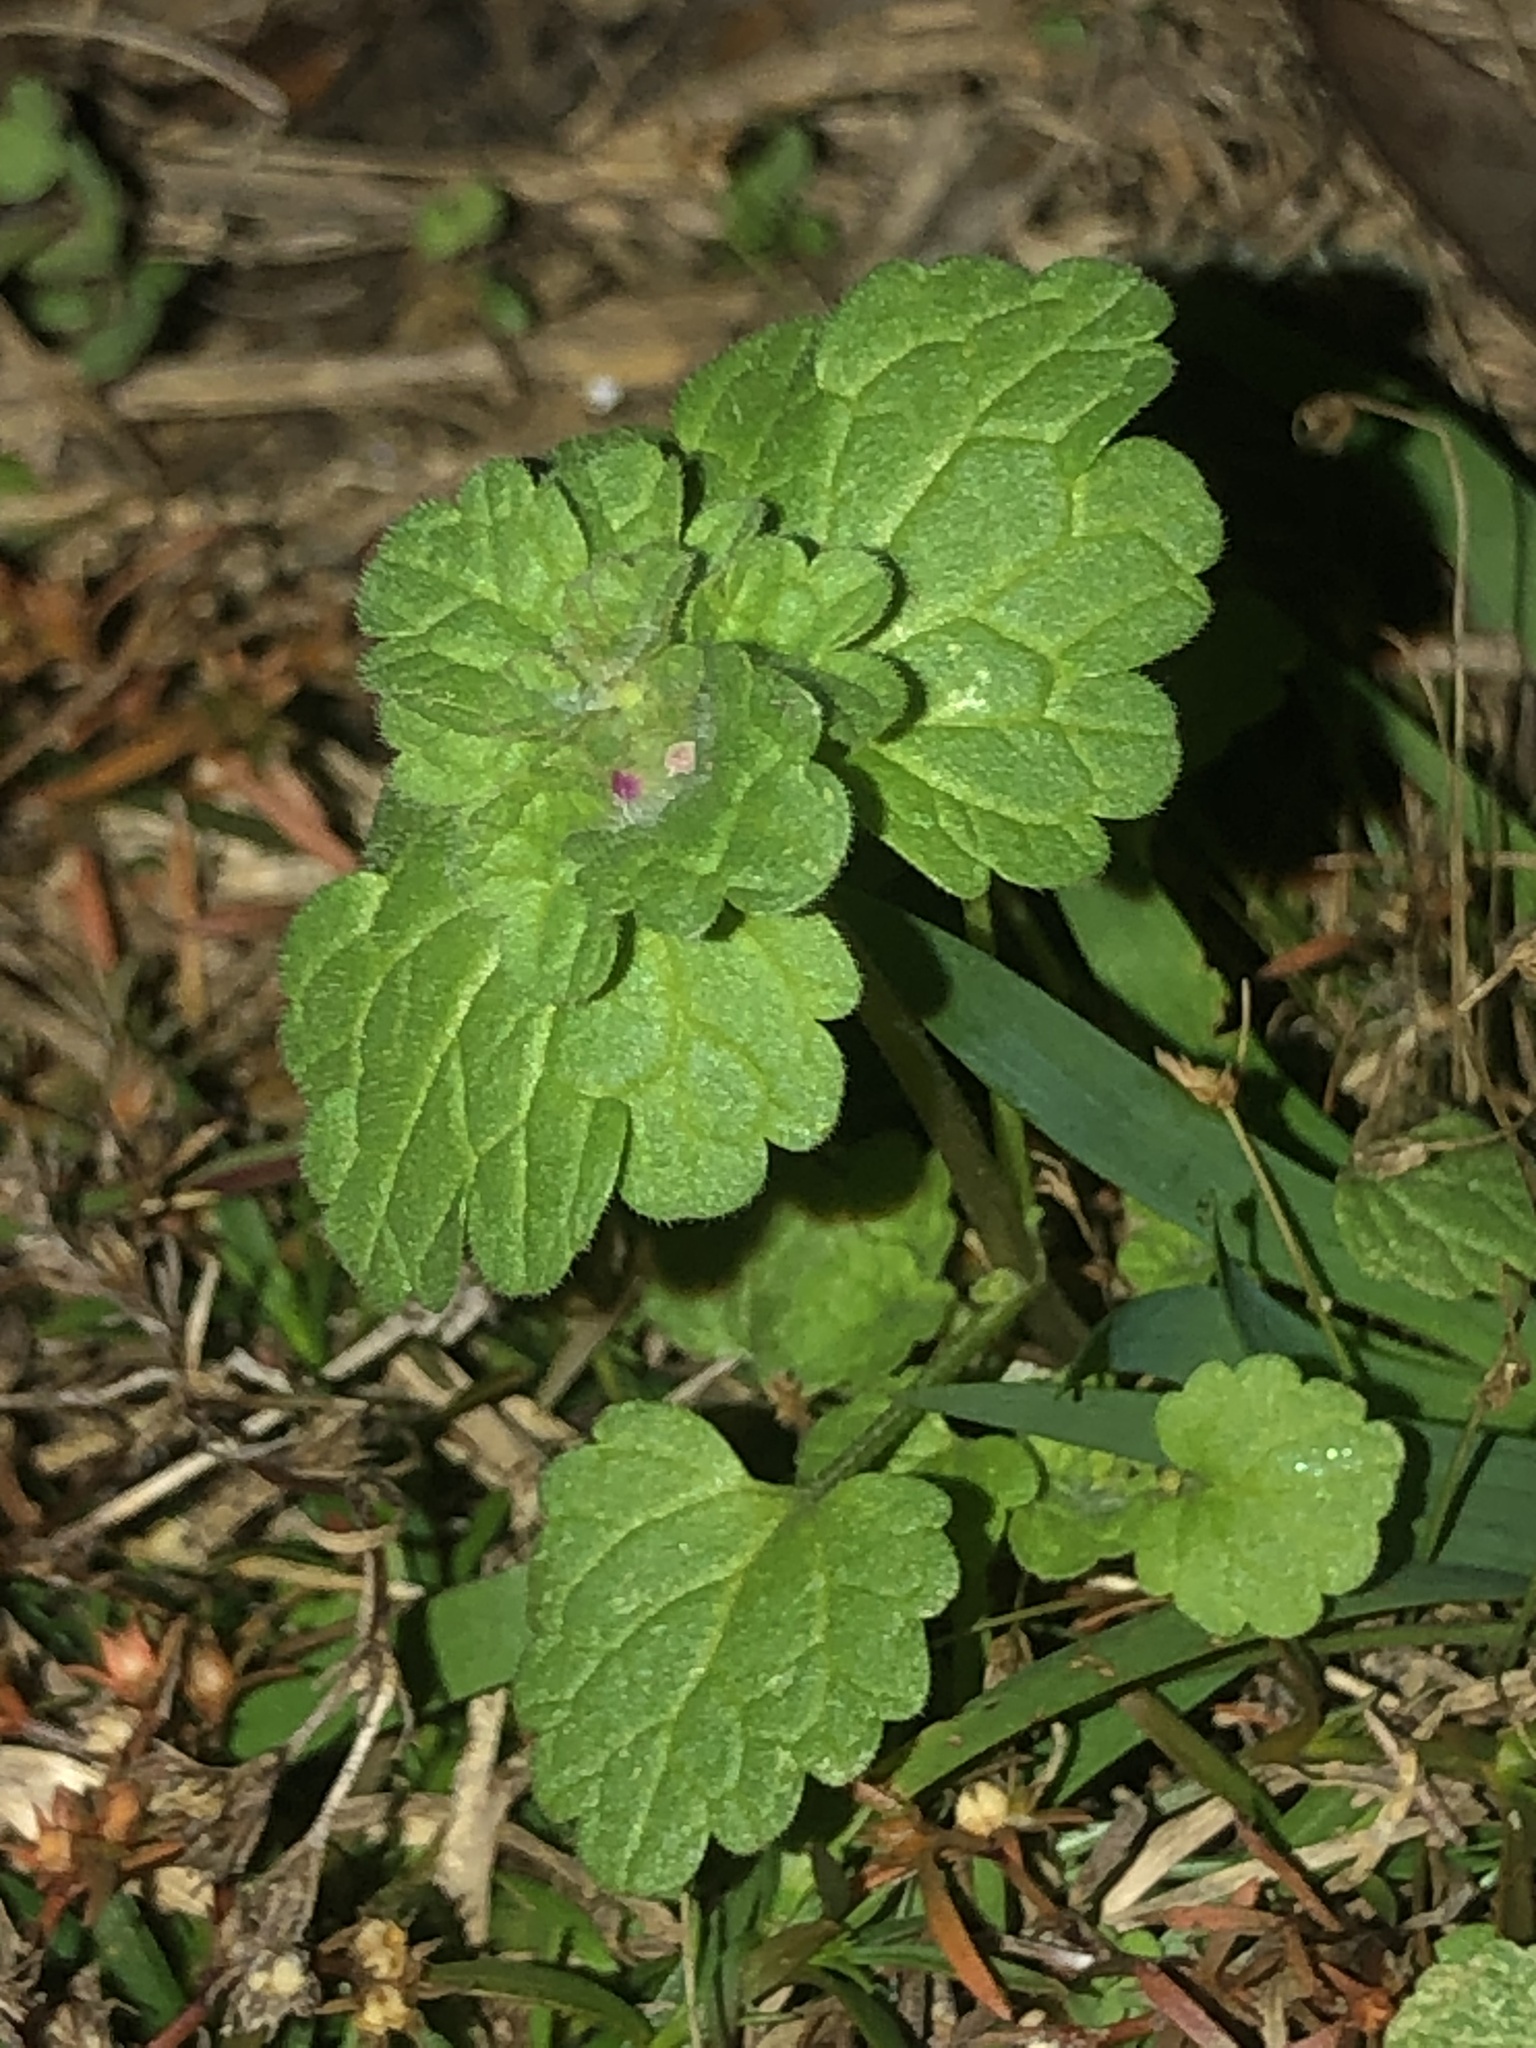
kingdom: Plantae
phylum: Tracheophyta
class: Magnoliopsida
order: Lamiales
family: Lamiaceae
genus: Lamium
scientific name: Lamium amplexicaule
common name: Henbit dead-nettle
